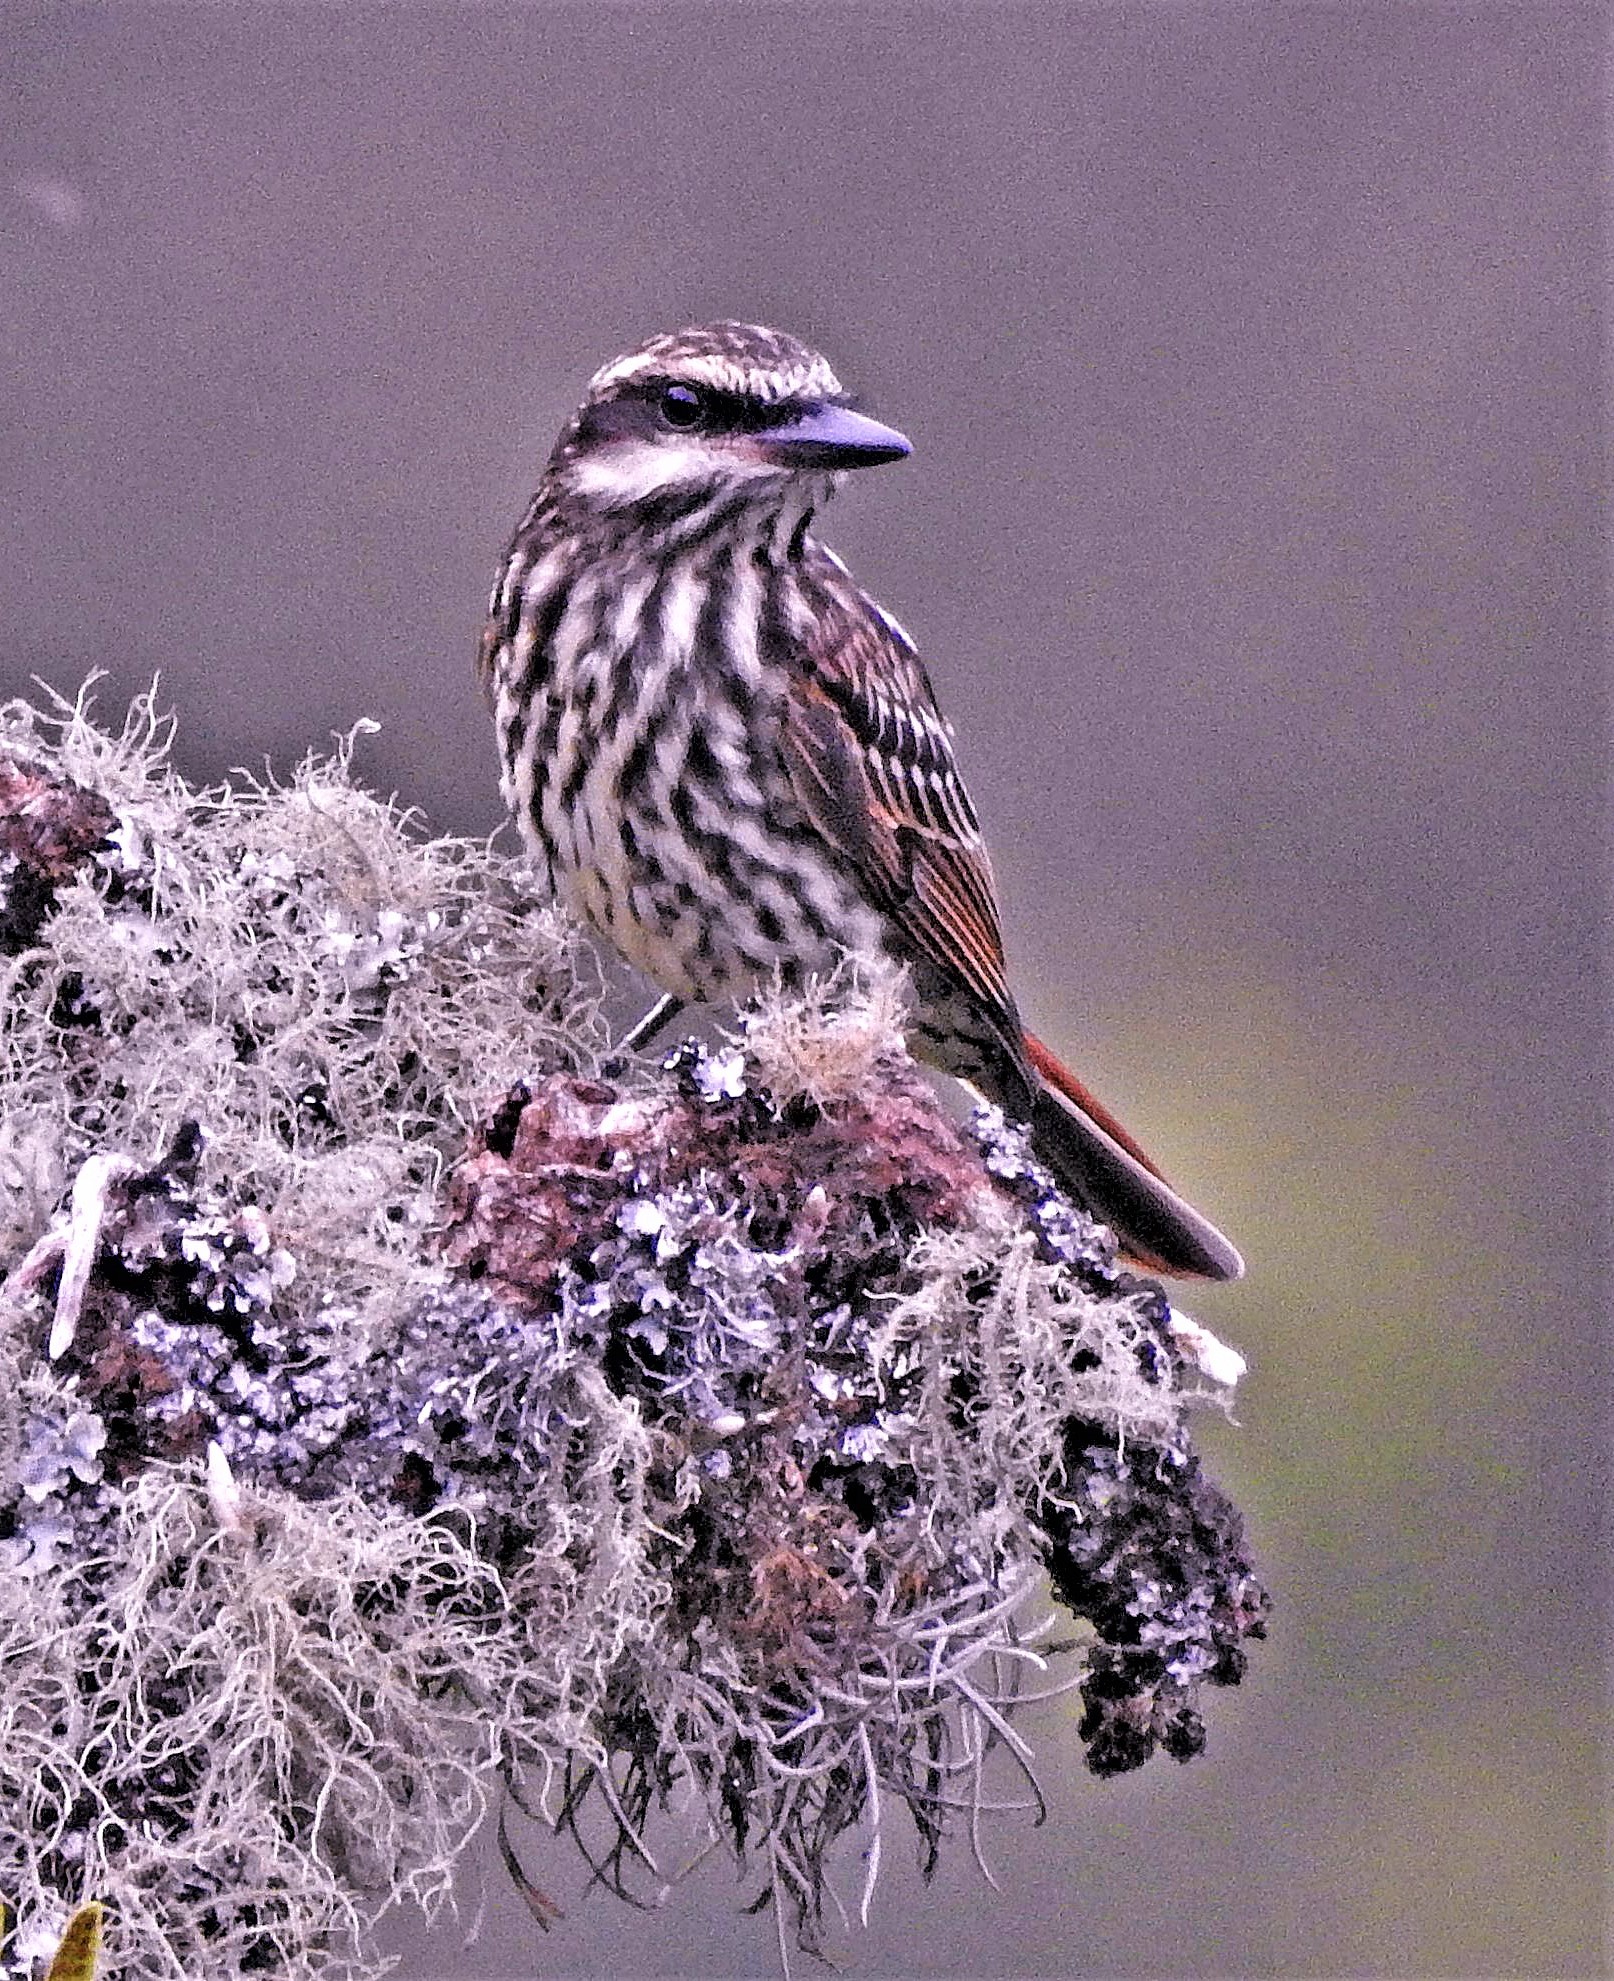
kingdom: Animalia
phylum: Chordata
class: Aves
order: Passeriformes
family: Tyrannidae
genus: Myiodynastes
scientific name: Myiodynastes maculatus
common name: Streaked flycatcher
